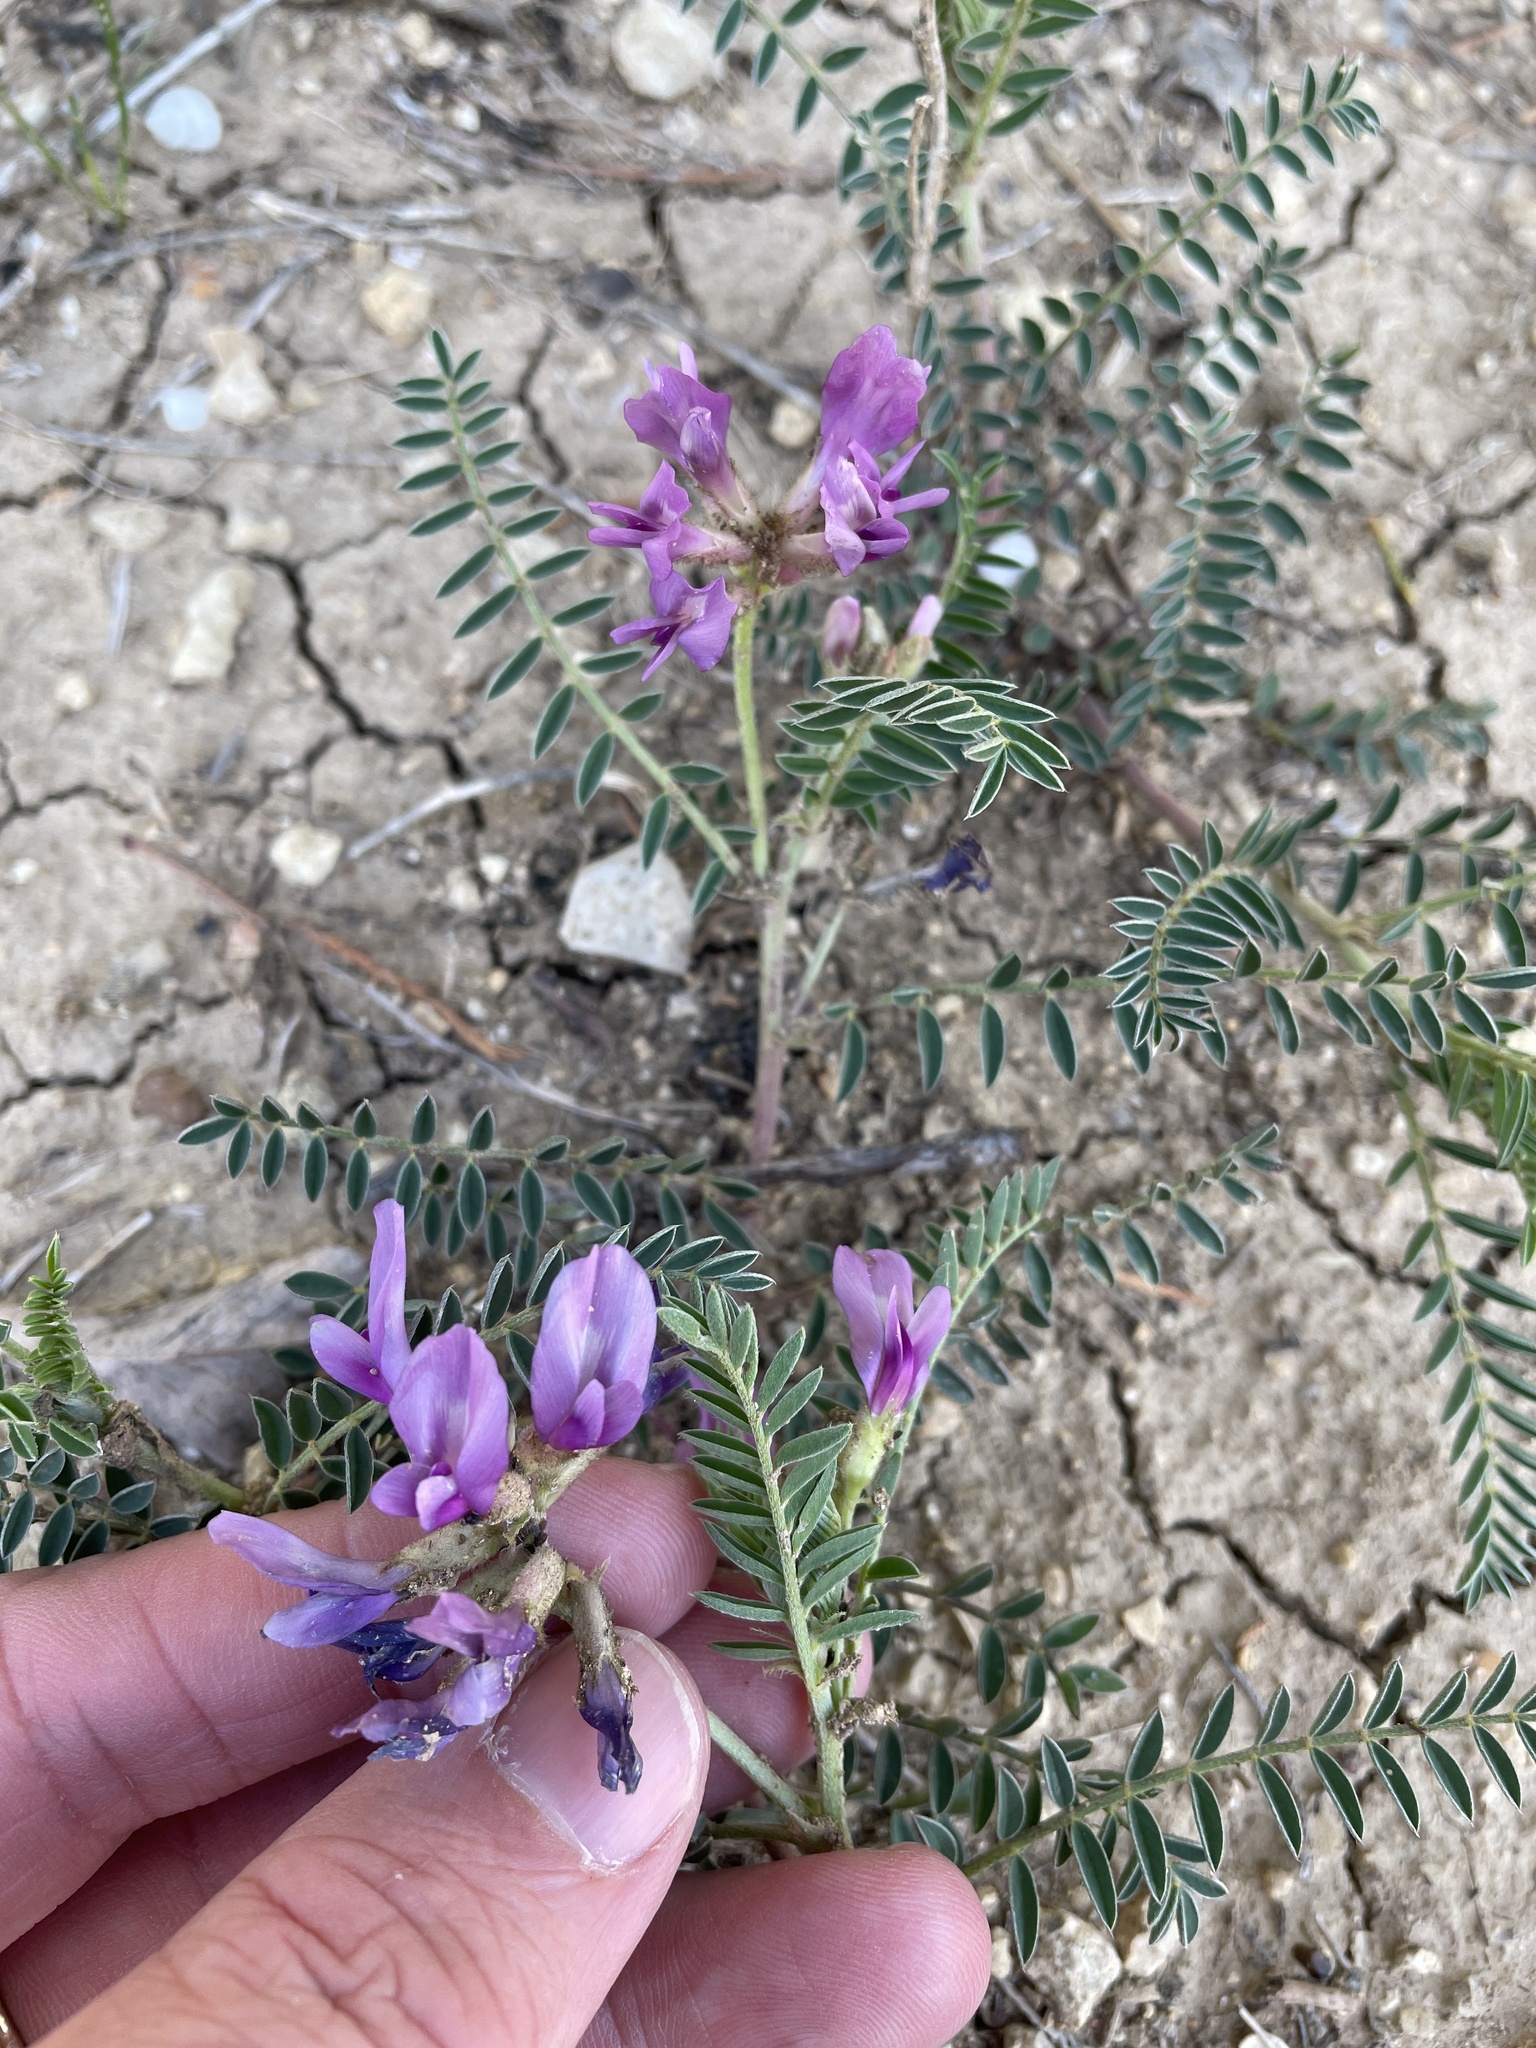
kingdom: Plantae
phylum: Tracheophyta
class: Magnoliopsida
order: Fabales
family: Fabaceae
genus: Astragalus
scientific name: Astragalus crassicarpus
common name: Ground-plum milk-vetch
